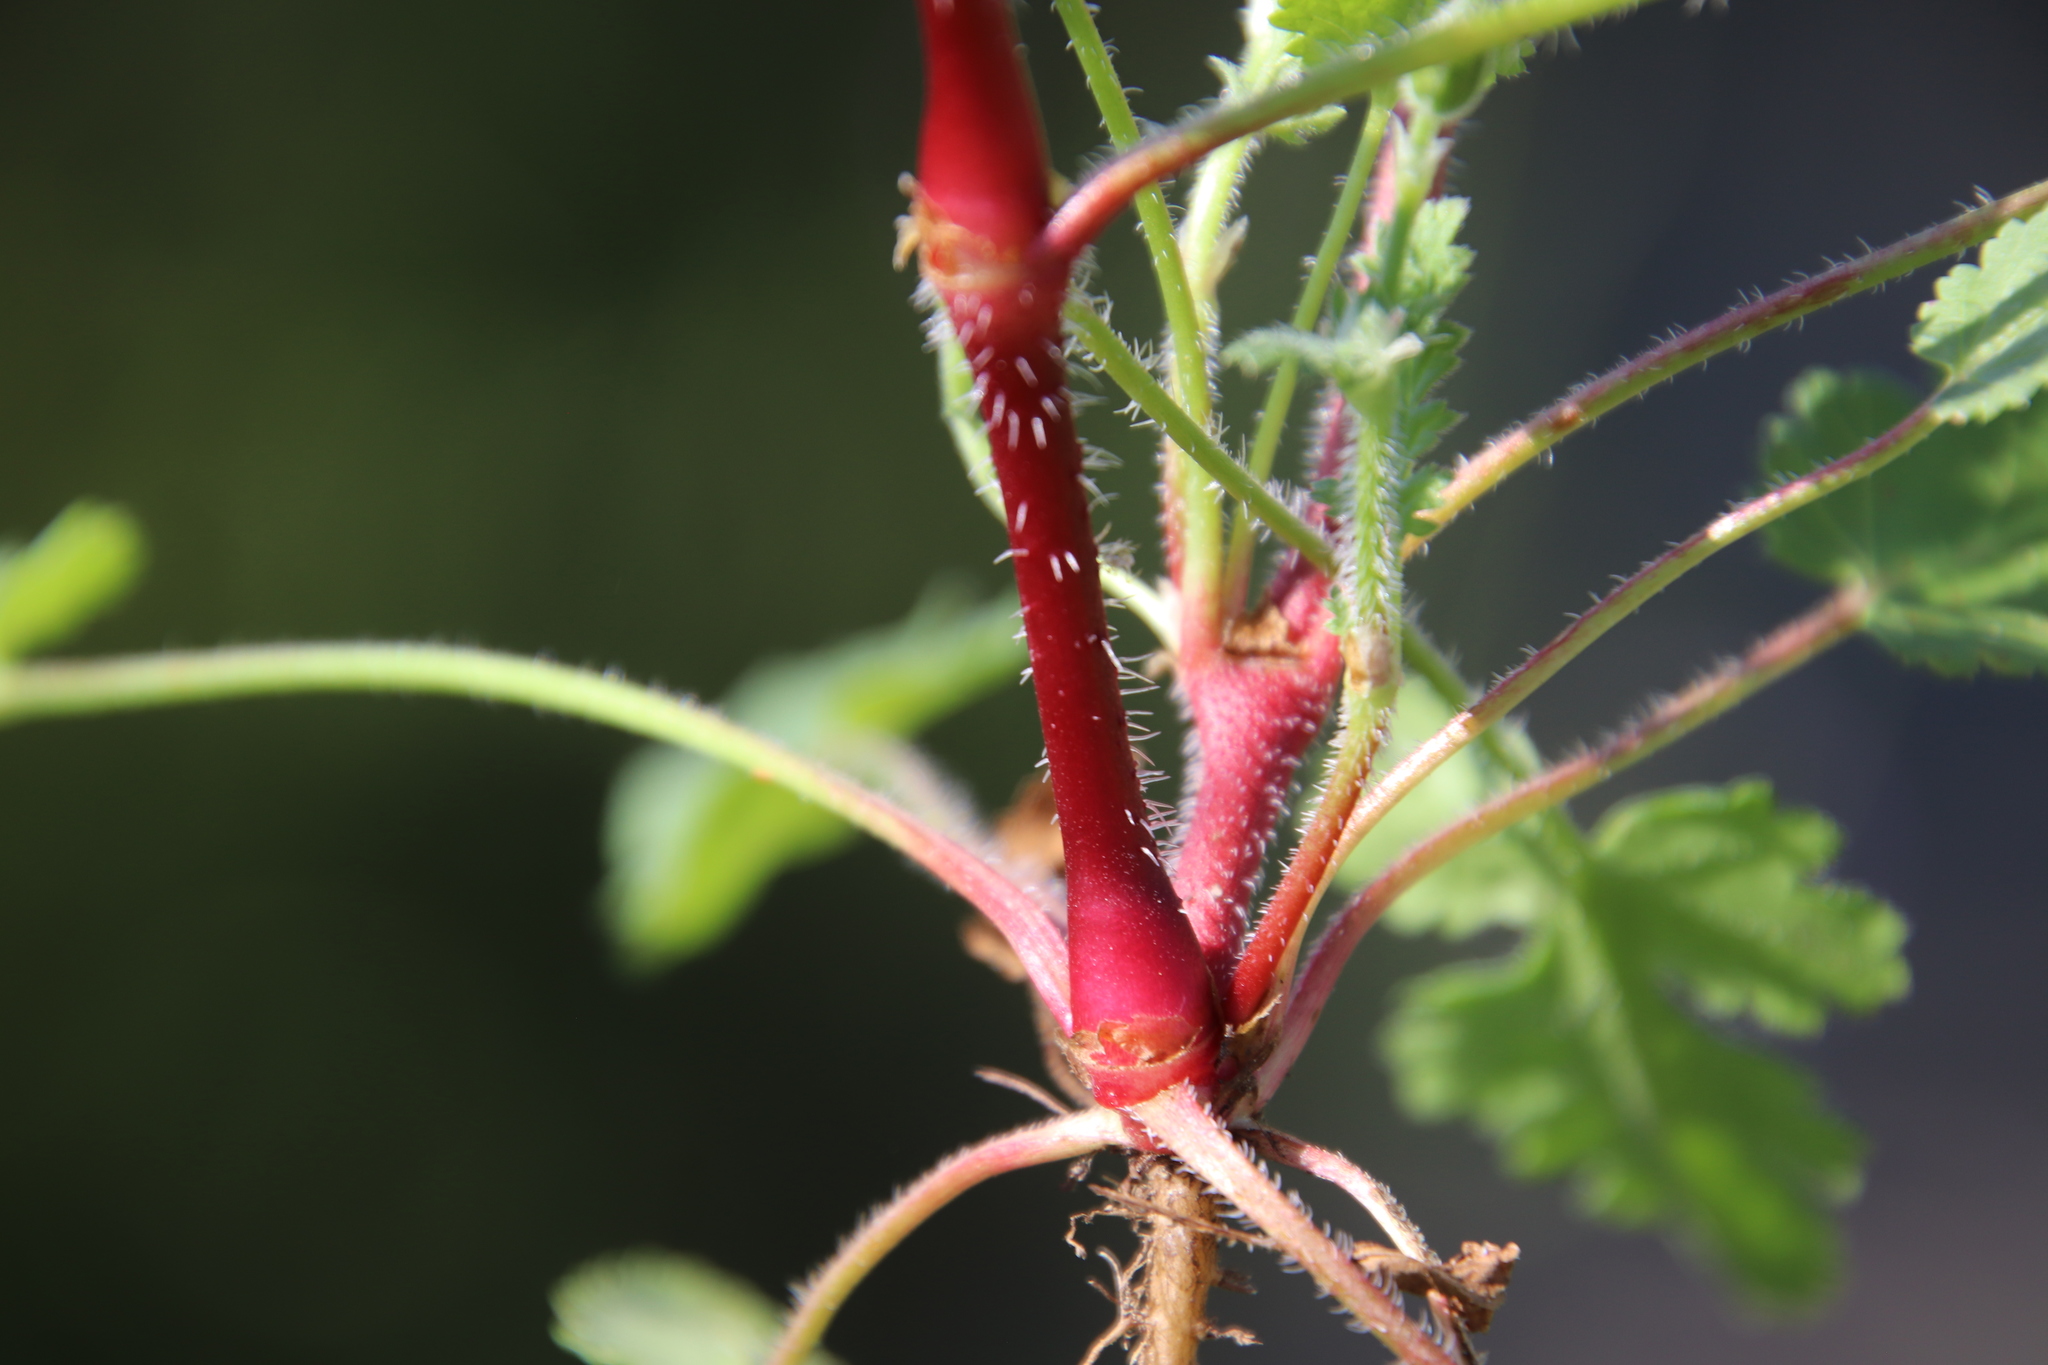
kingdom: Plantae
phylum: Tracheophyta
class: Magnoliopsida
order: Geraniales
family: Geraniaceae
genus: Erodium
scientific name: Erodium botrys
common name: Mediterranean stork's-bill
